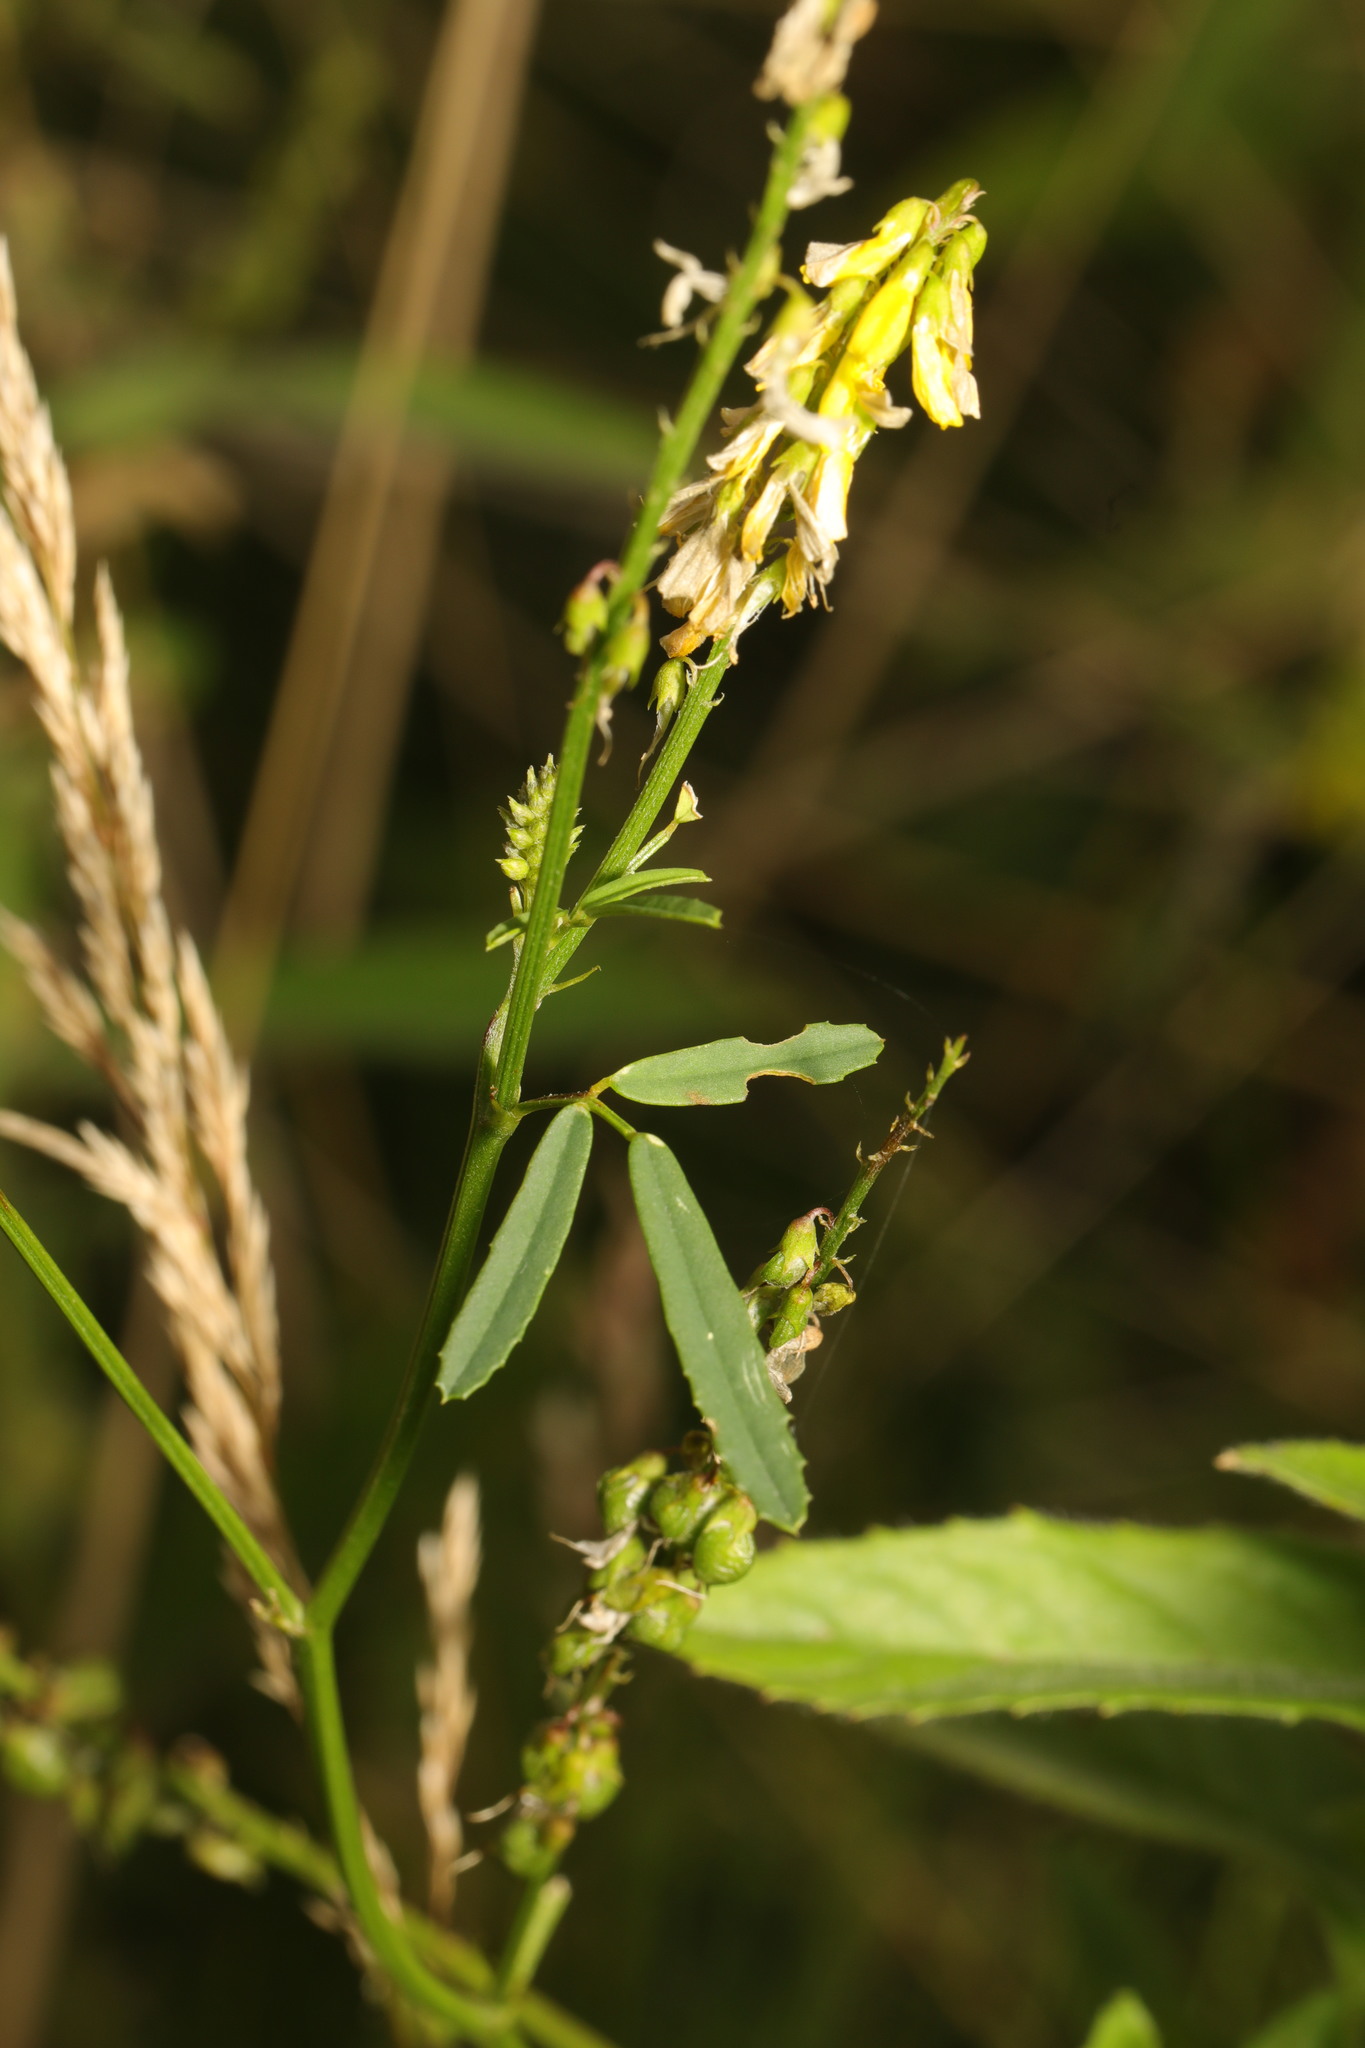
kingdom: Plantae
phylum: Tracheophyta
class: Magnoliopsida
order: Fabales
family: Fabaceae
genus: Melilotus
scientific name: Melilotus officinalis
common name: Sweetclover
